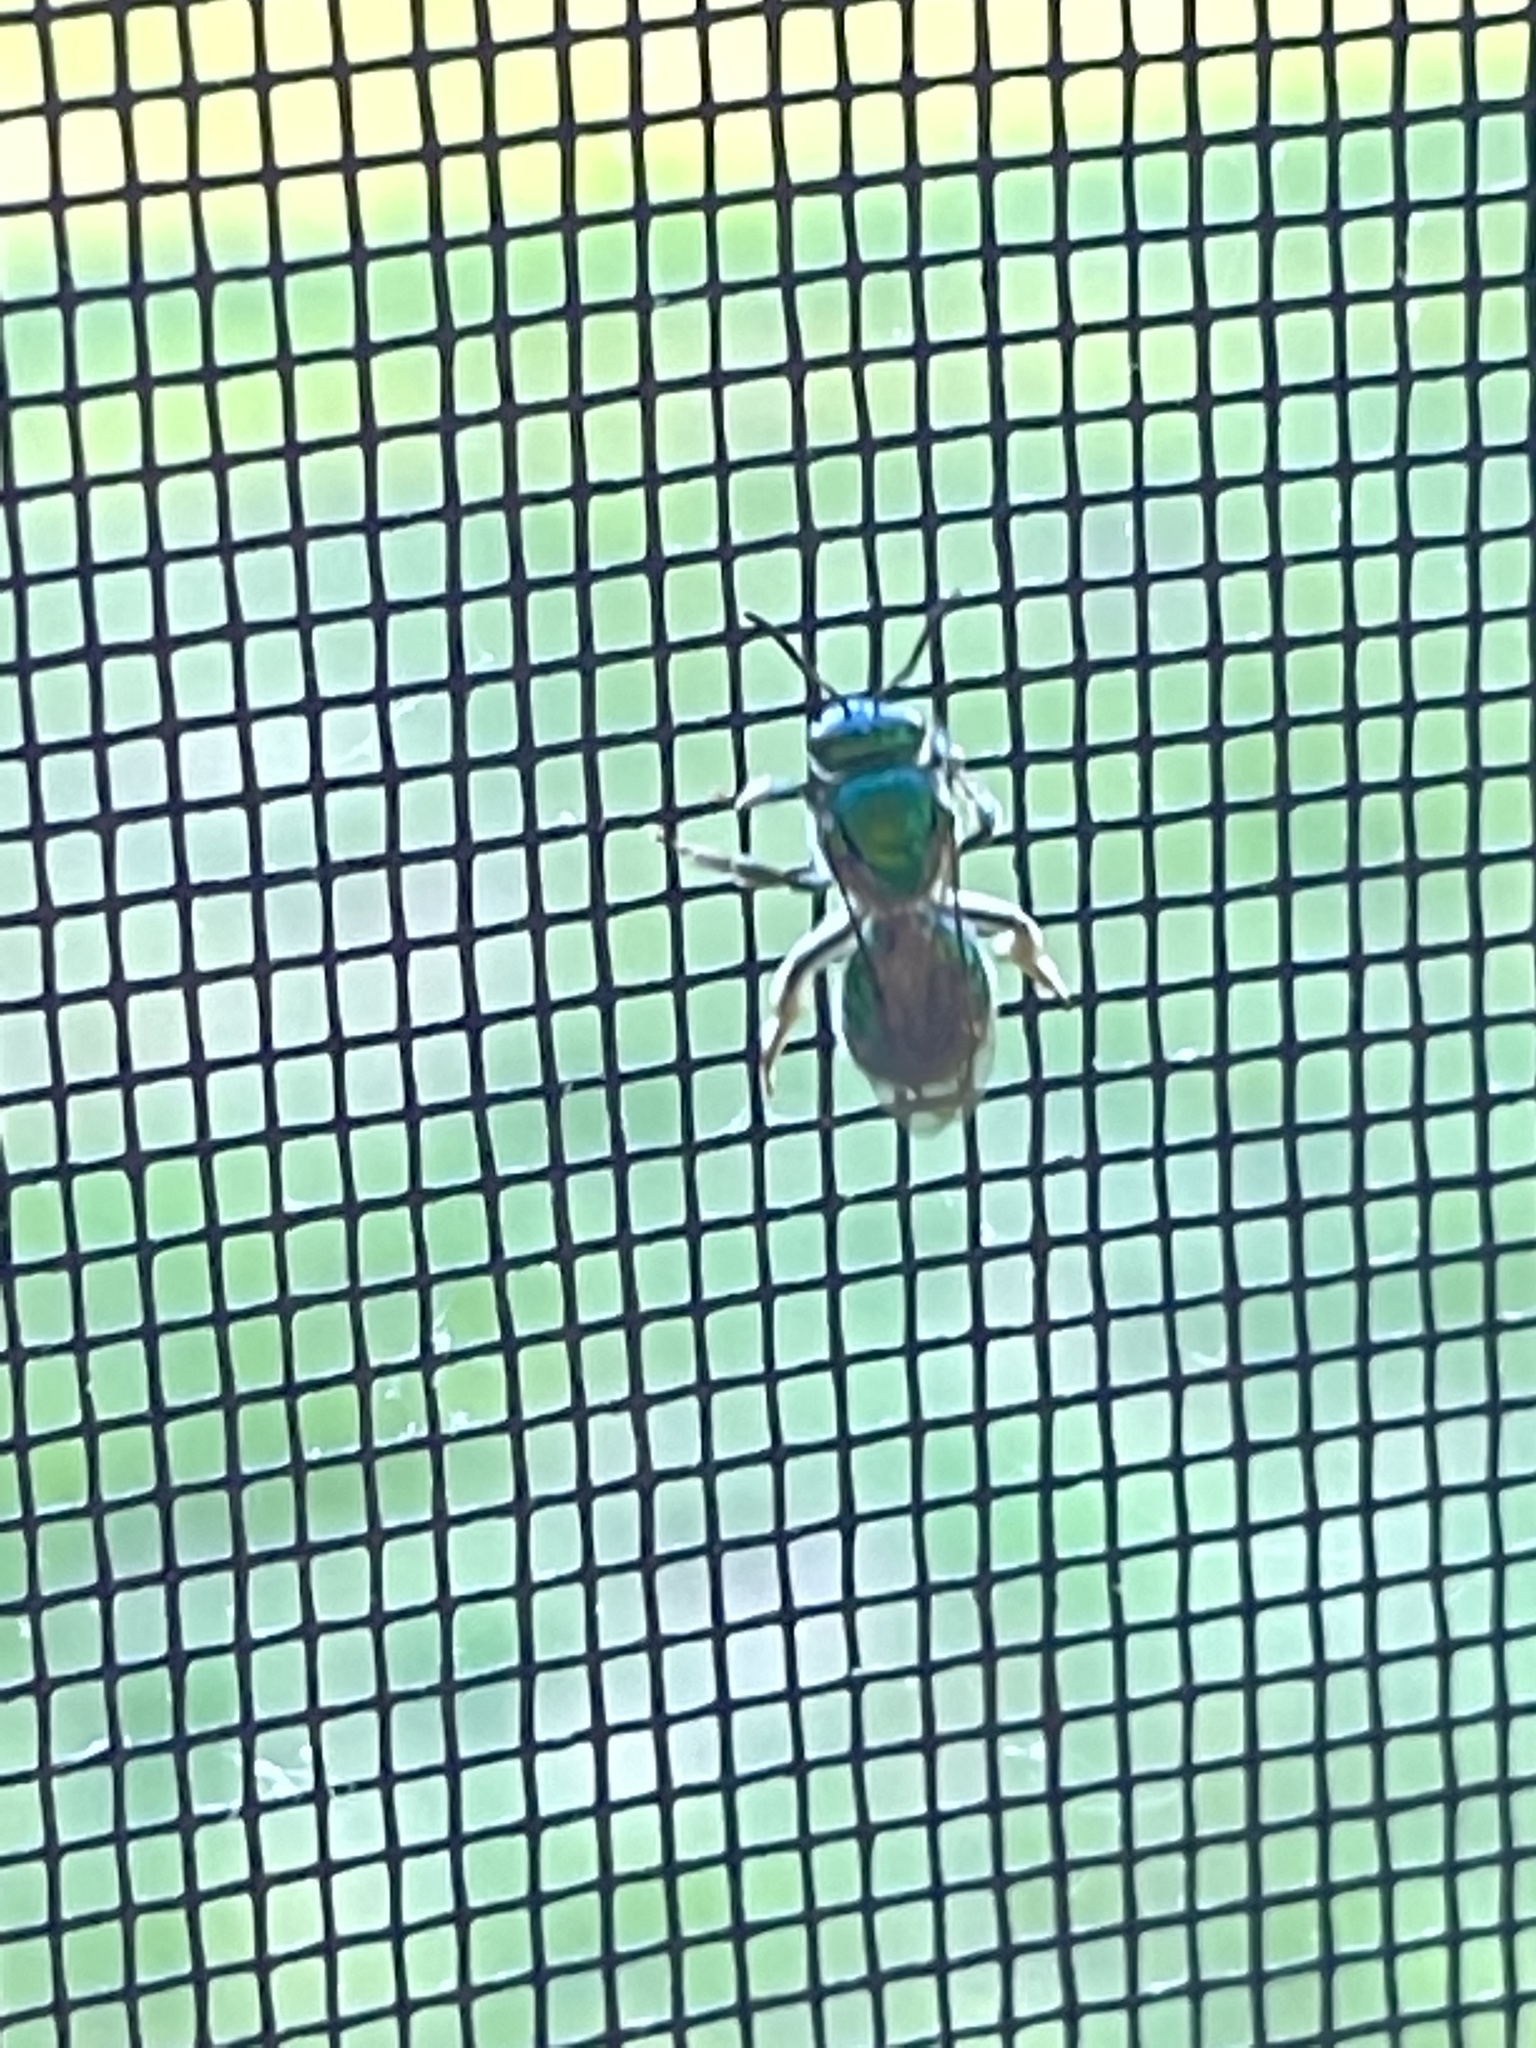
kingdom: Animalia
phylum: Arthropoda
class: Insecta
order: Hymenoptera
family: Halictidae
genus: Augochloropsis
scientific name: Augochloropsis viridula
